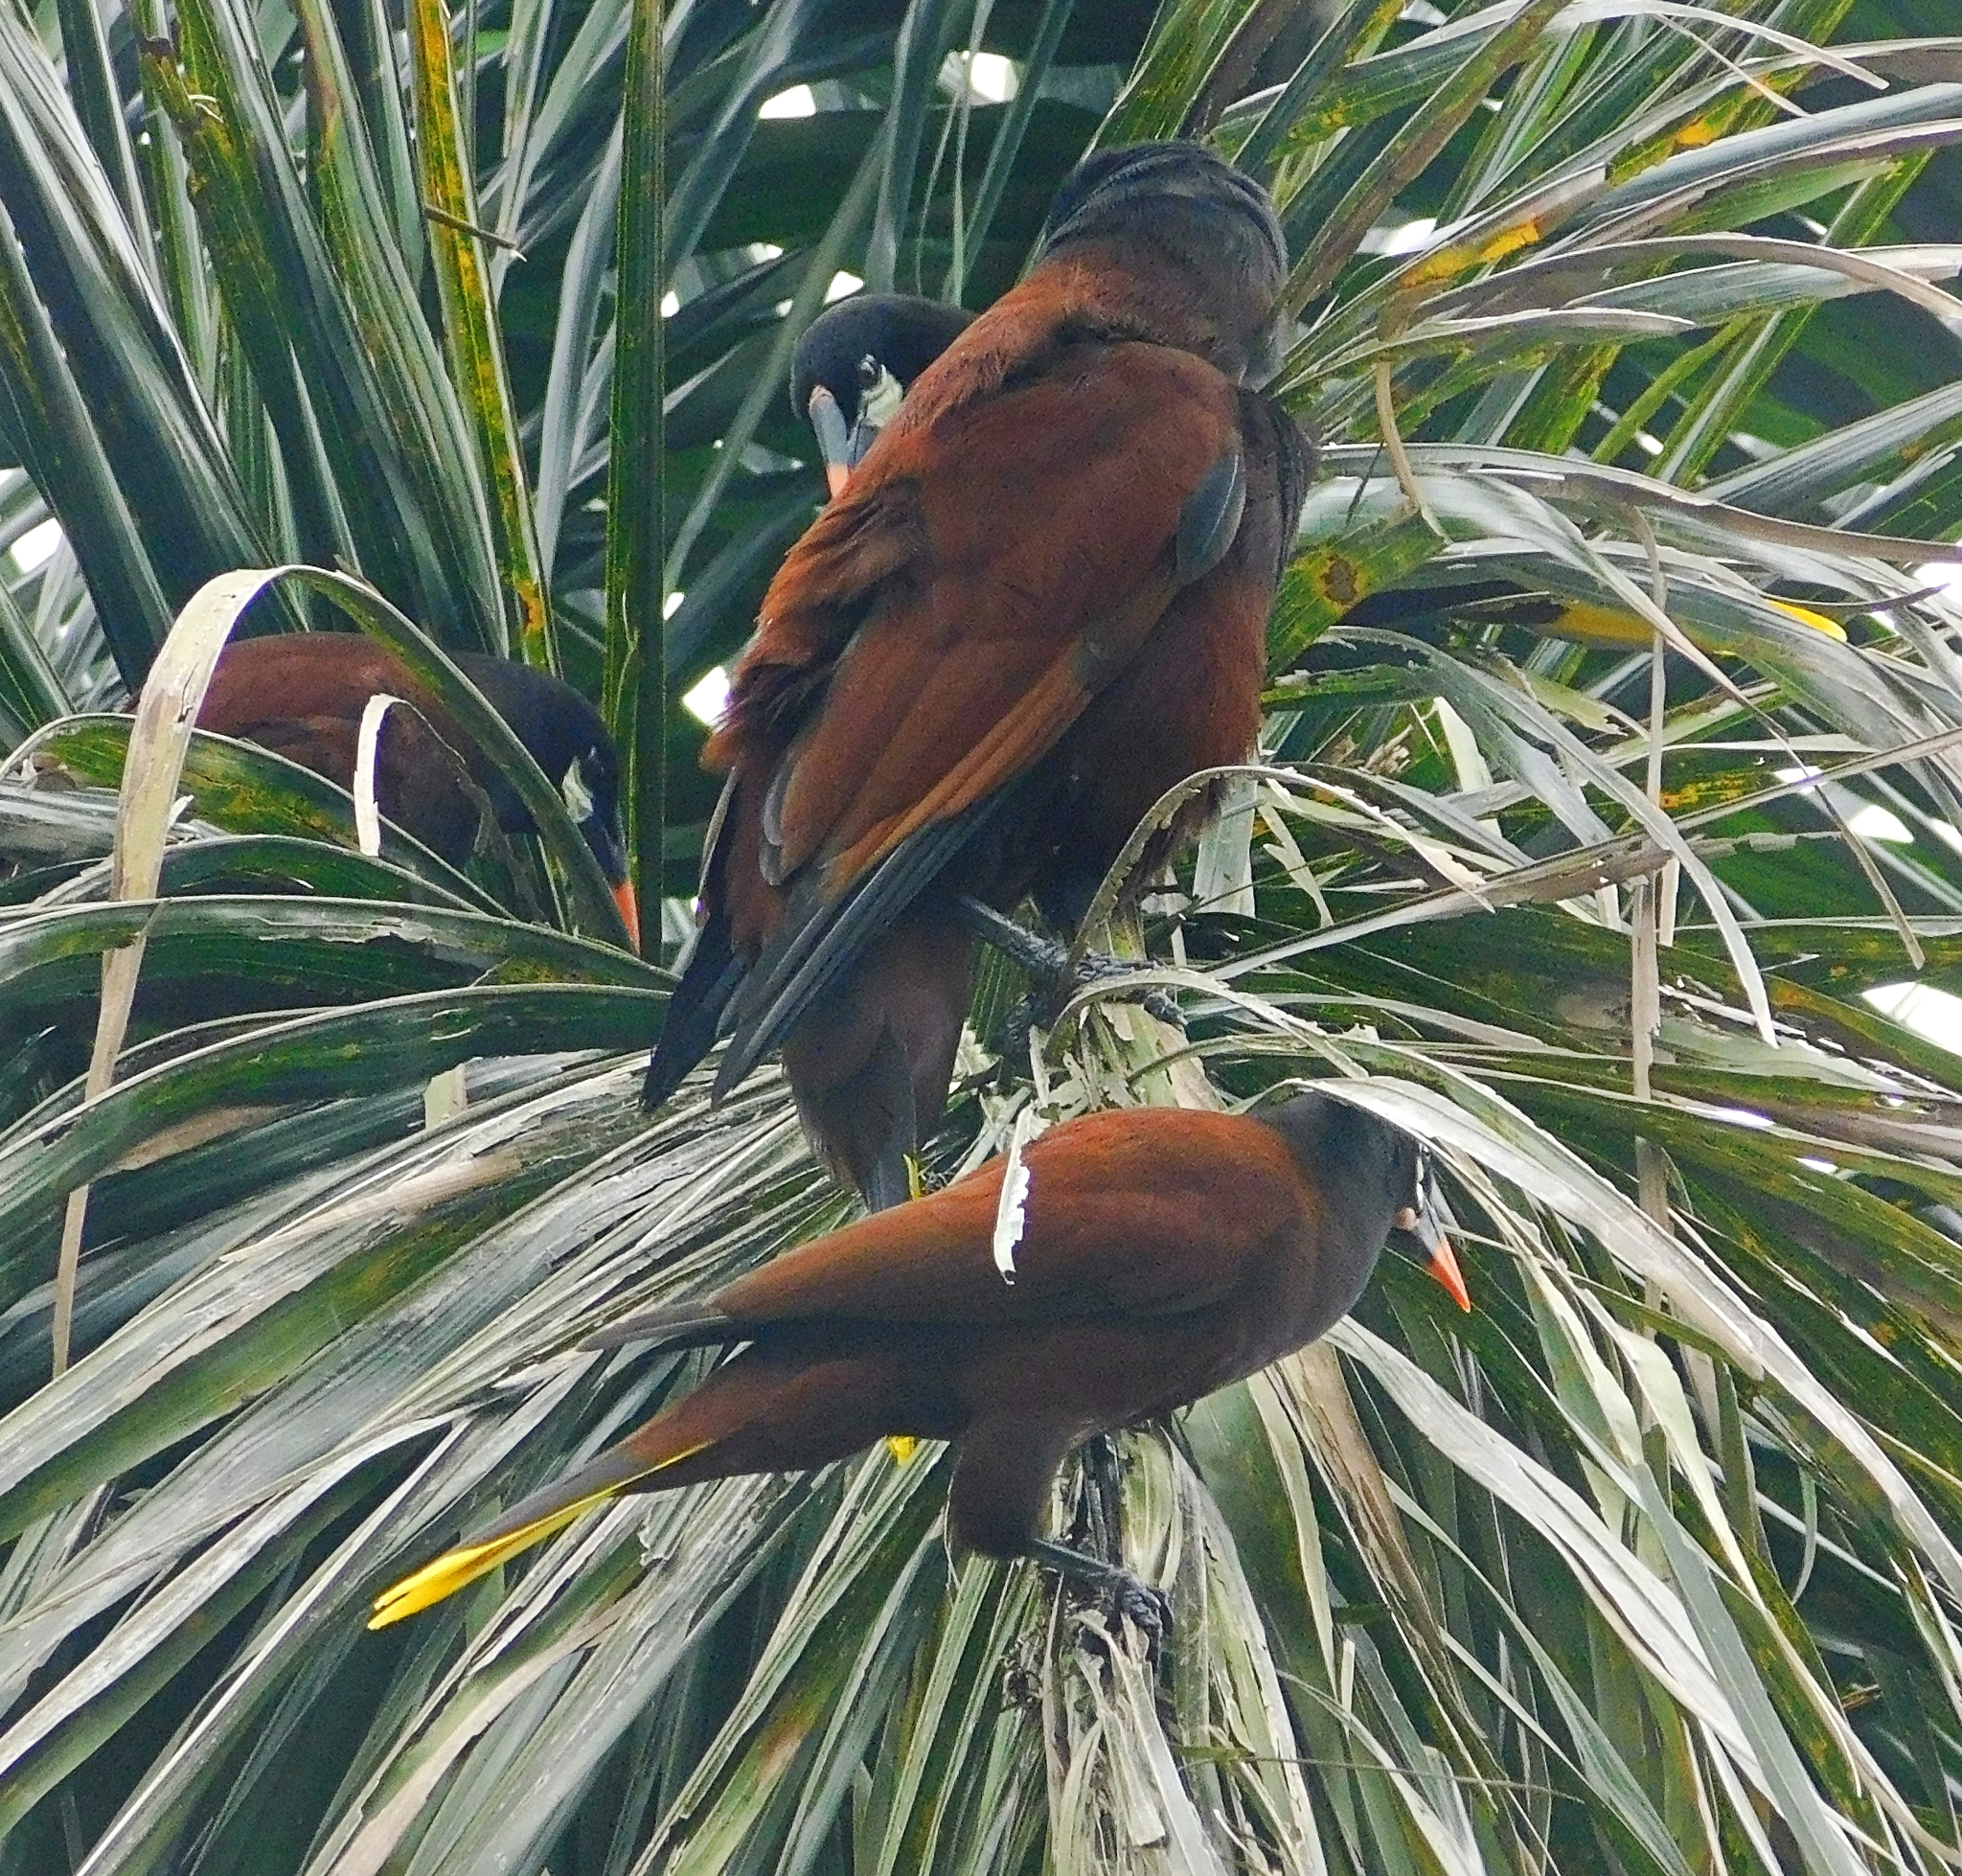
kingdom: Animalia
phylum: Chordata
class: Aves
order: Passeriformes
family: Icteridae
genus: Psarocolius
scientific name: Psarocolius montezuma
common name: Montezuma oropendola
